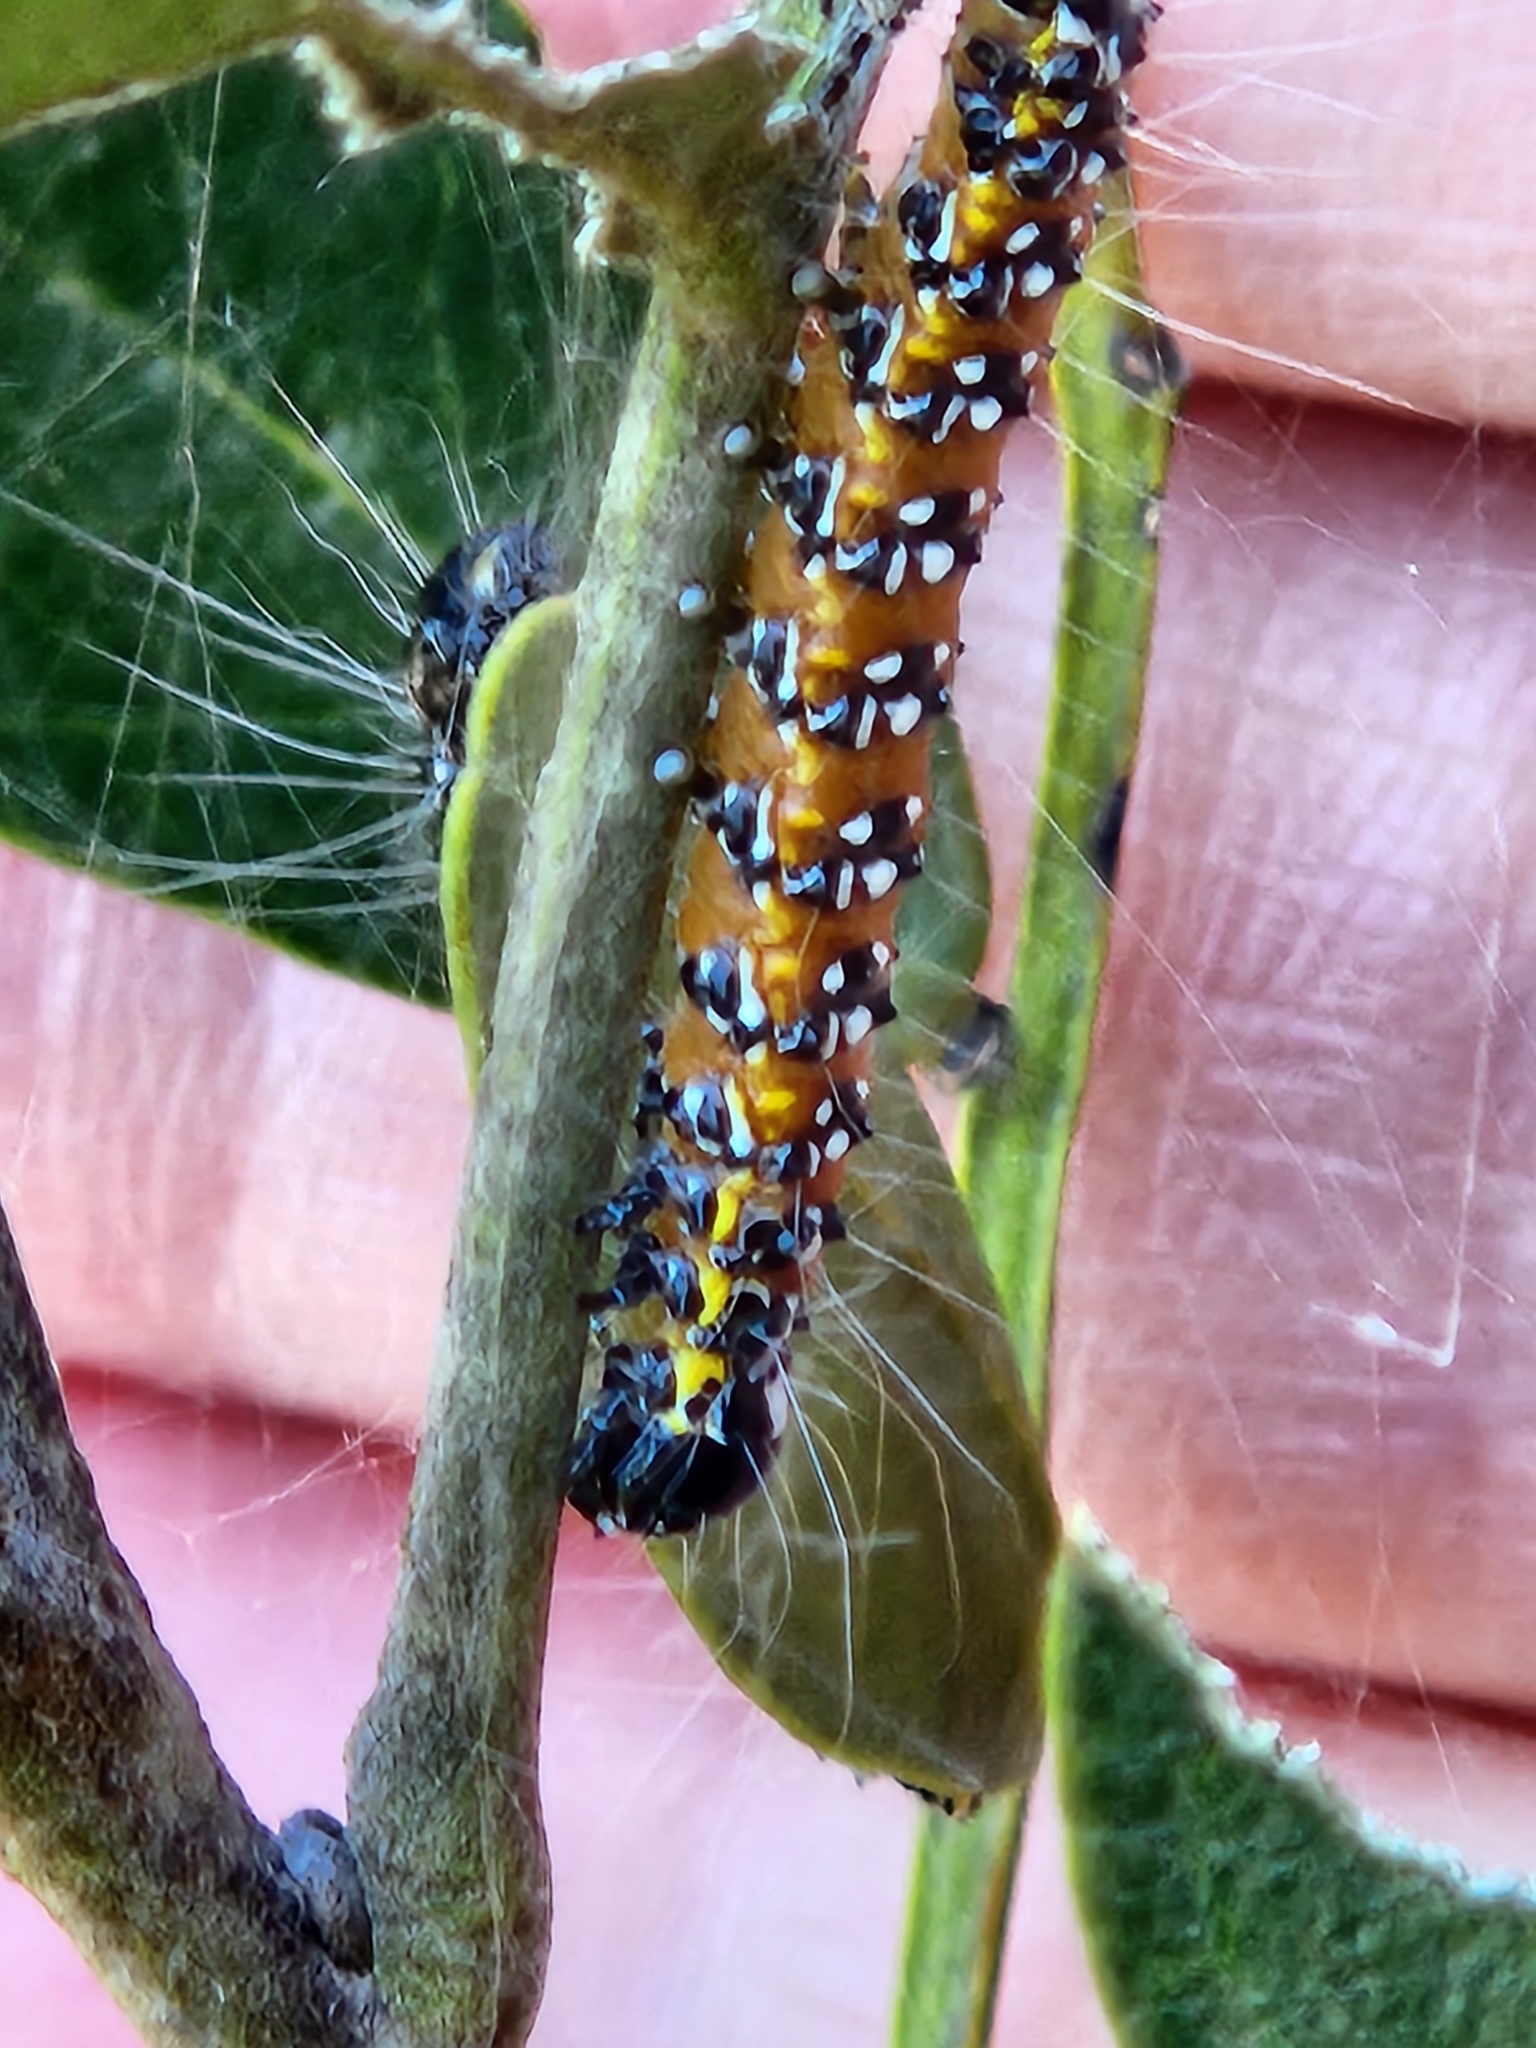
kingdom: Animalia
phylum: Arthropoda
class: Insecta
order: Lepidoptera
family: Crambidae
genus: Uresiphita
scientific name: Uresiphita reversalis
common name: Genista broom moth
